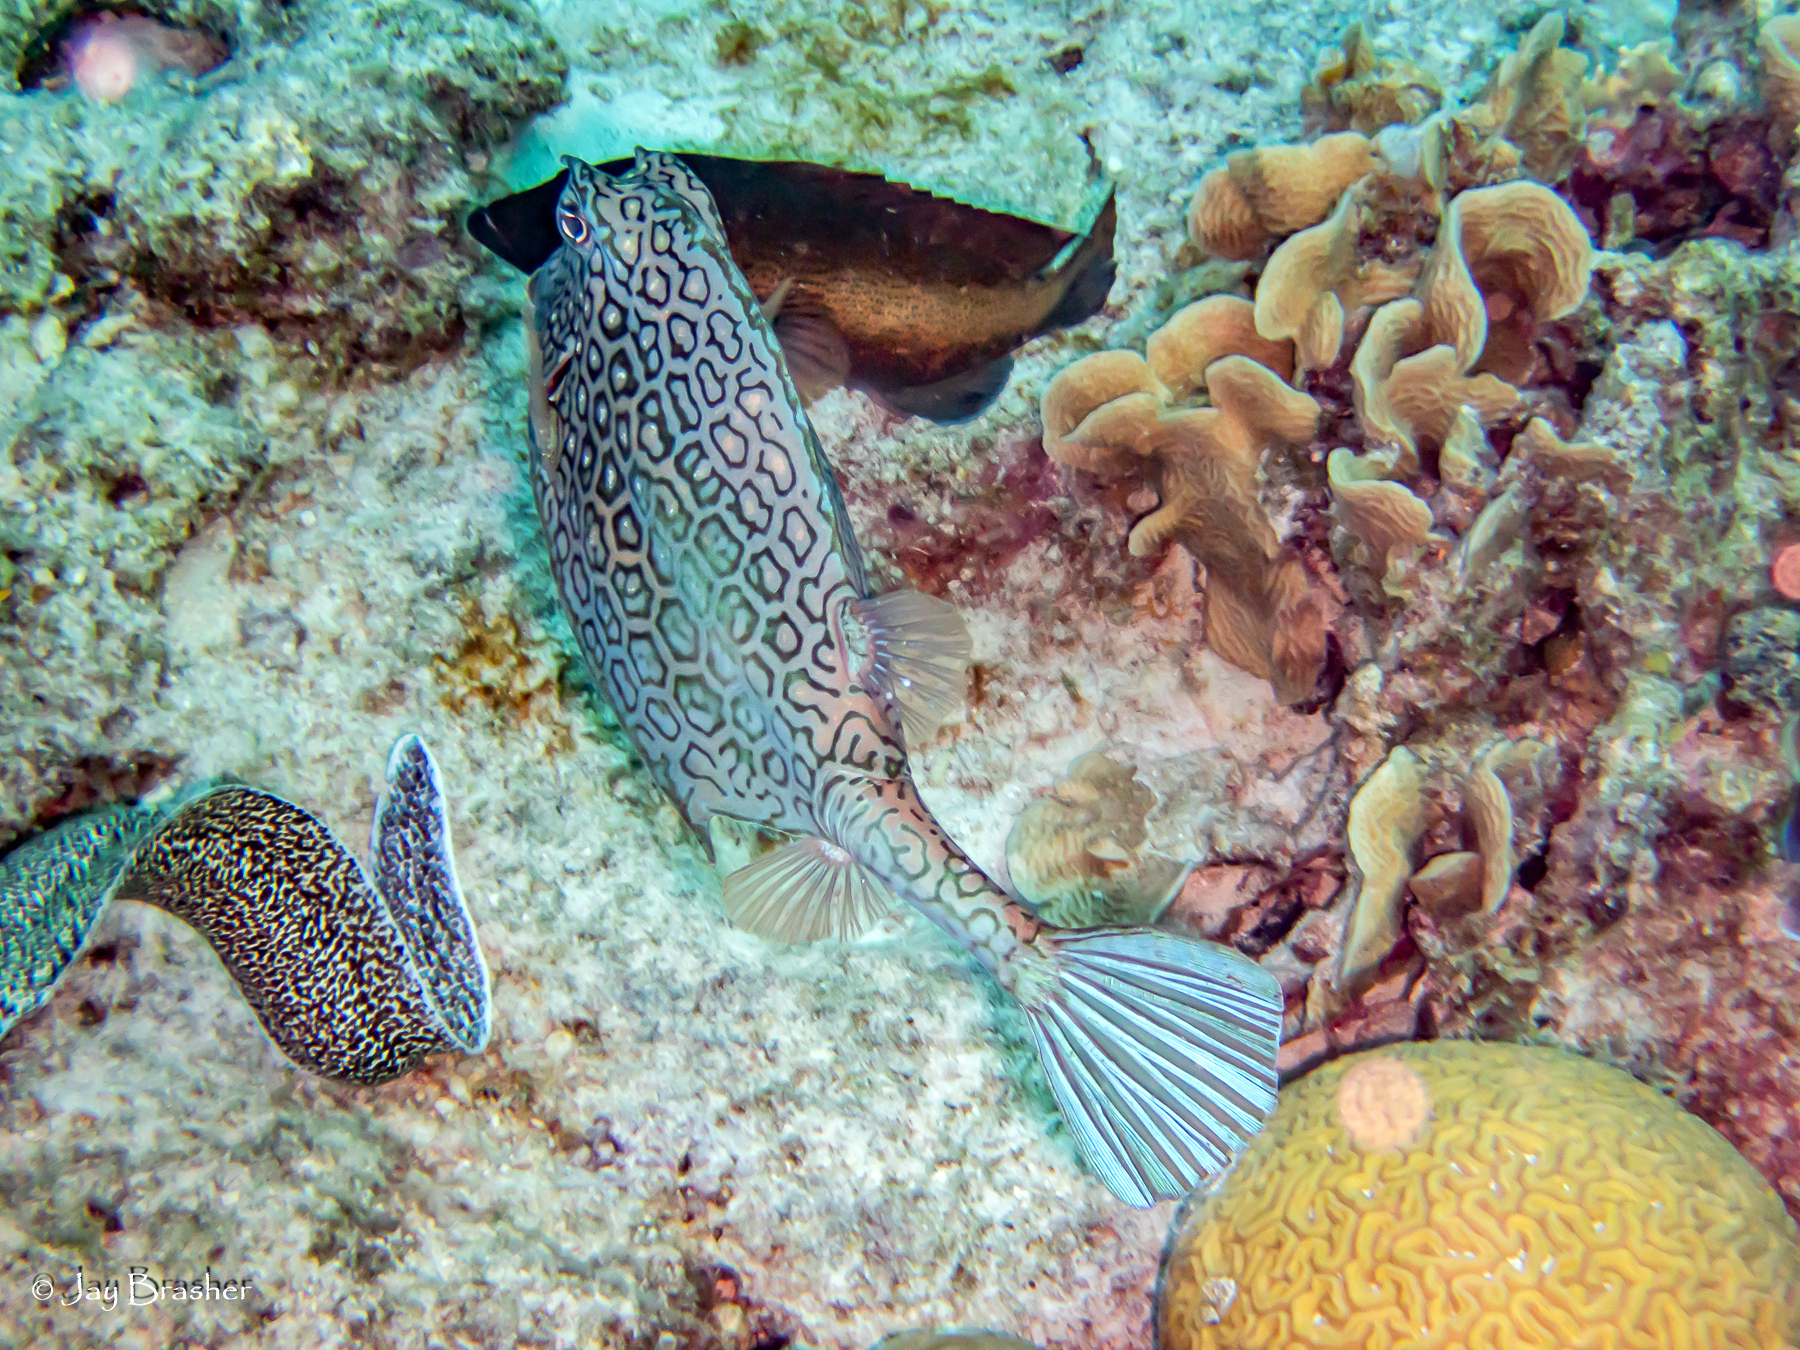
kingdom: Animalia
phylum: Chordata
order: Tetraodontiformes
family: Ostraciidae
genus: Acanthostracion
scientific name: Acanthostracion polygonius
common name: Honeycomb cowfish
